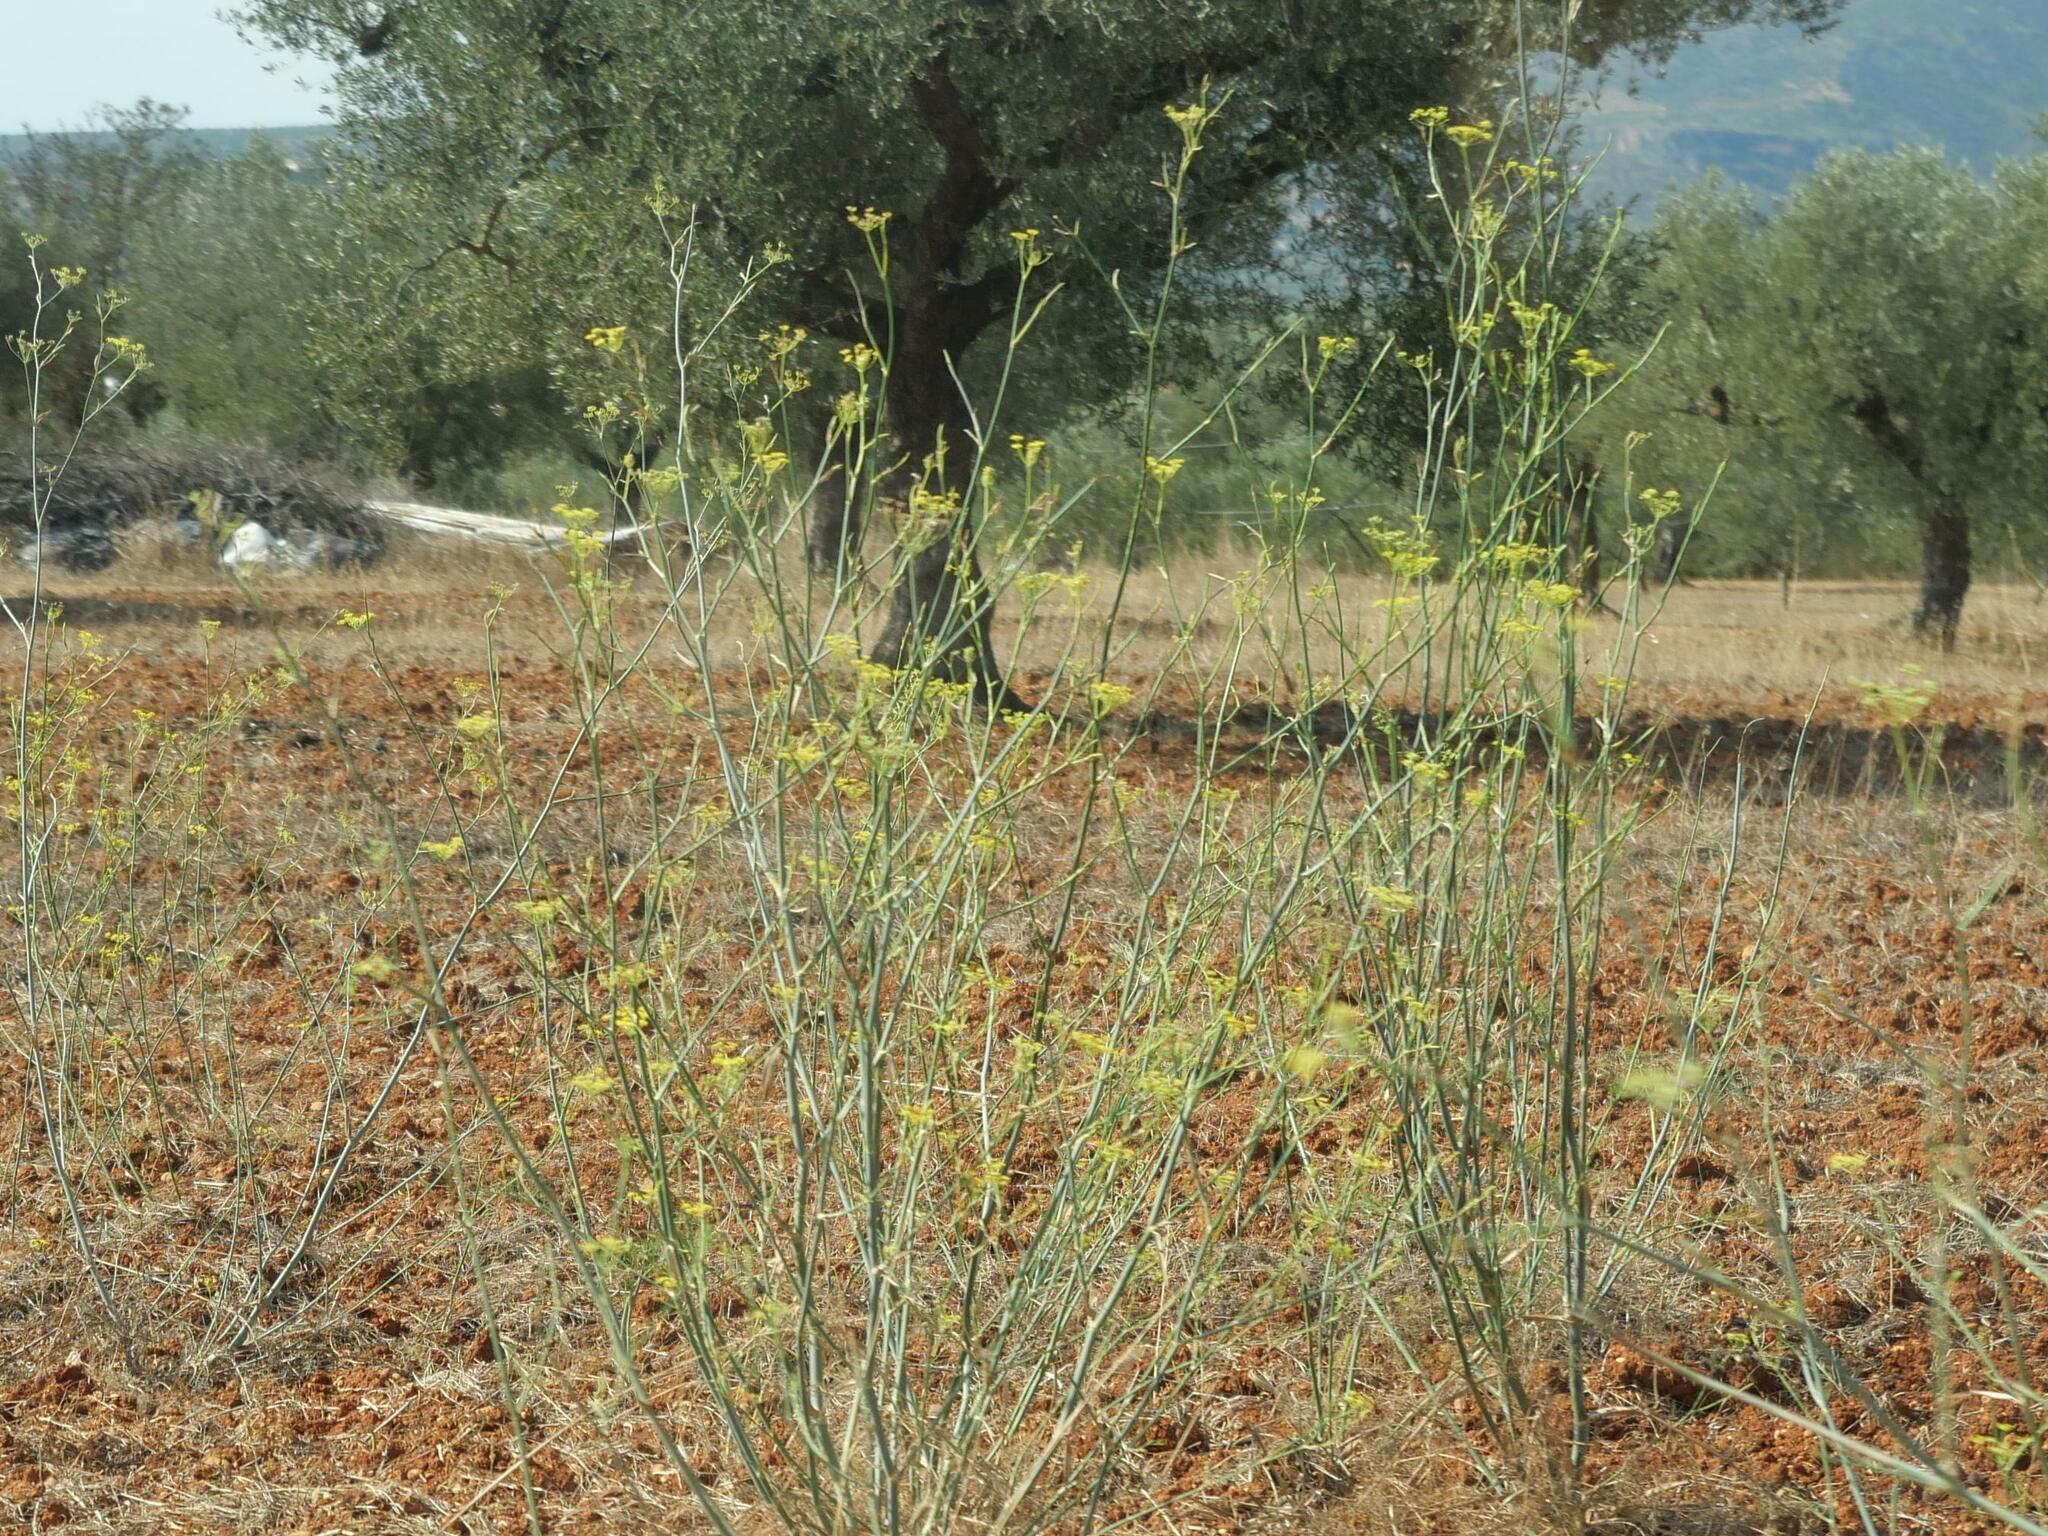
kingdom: Plantae
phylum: Tracheophyta
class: Magnoliopsida
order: Apiales
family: Apiaceae
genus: Foeniculum
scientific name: Foeniculum vulgare
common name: Fennel
